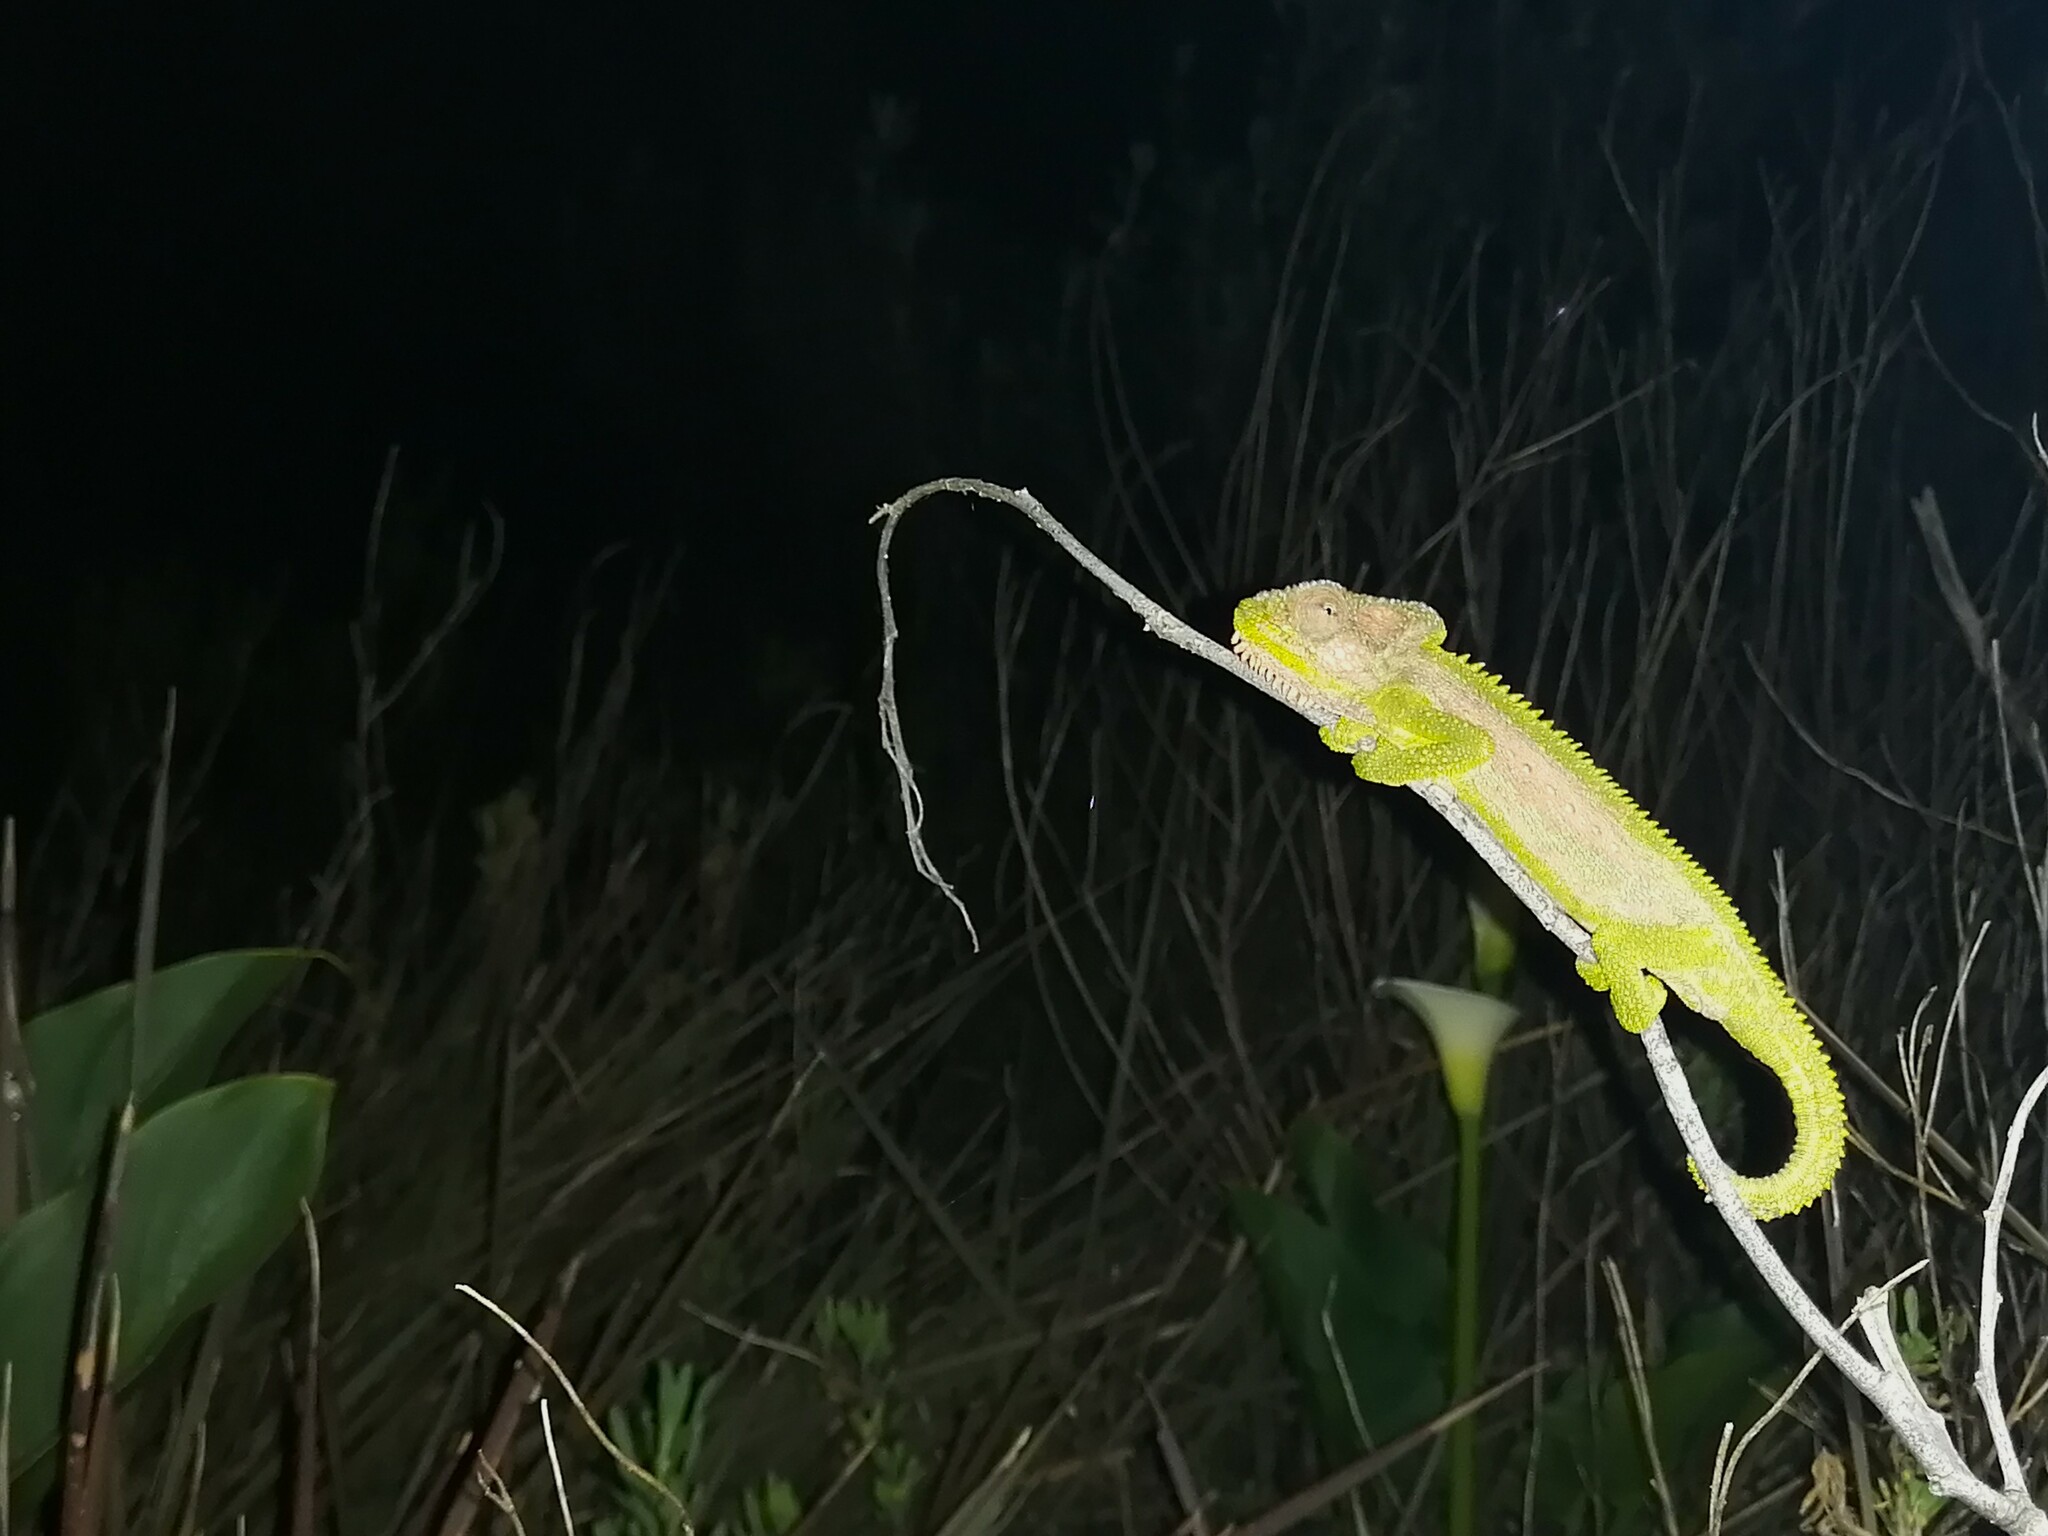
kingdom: Animalia
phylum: Chordata
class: Squamata
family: Chamaeleonidae
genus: Bradypodion
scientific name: Bradypodion pumilum
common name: Cape dwarf chameleon
